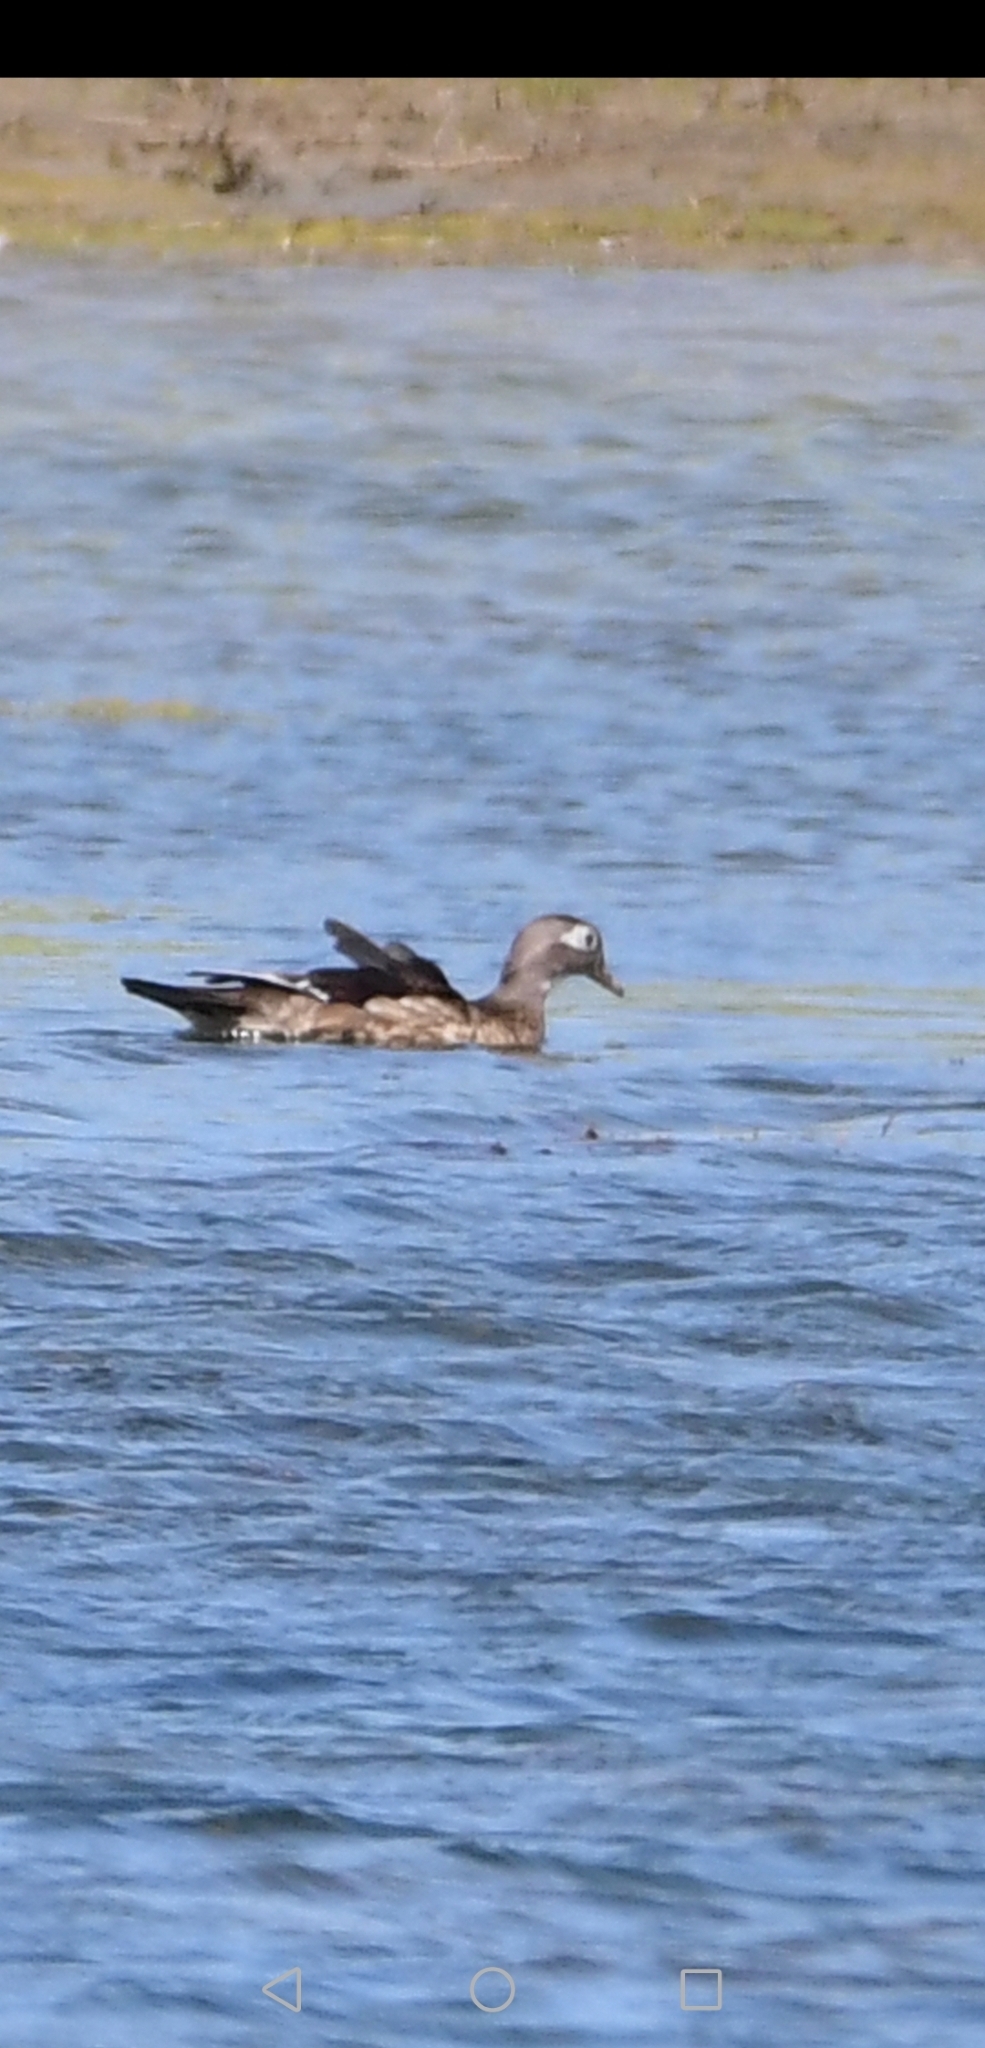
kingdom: Animalia
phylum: Chordata
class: Aves
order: Anseriformes
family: Anatidae
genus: Aix
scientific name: Aix sponsa
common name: Wood duck
